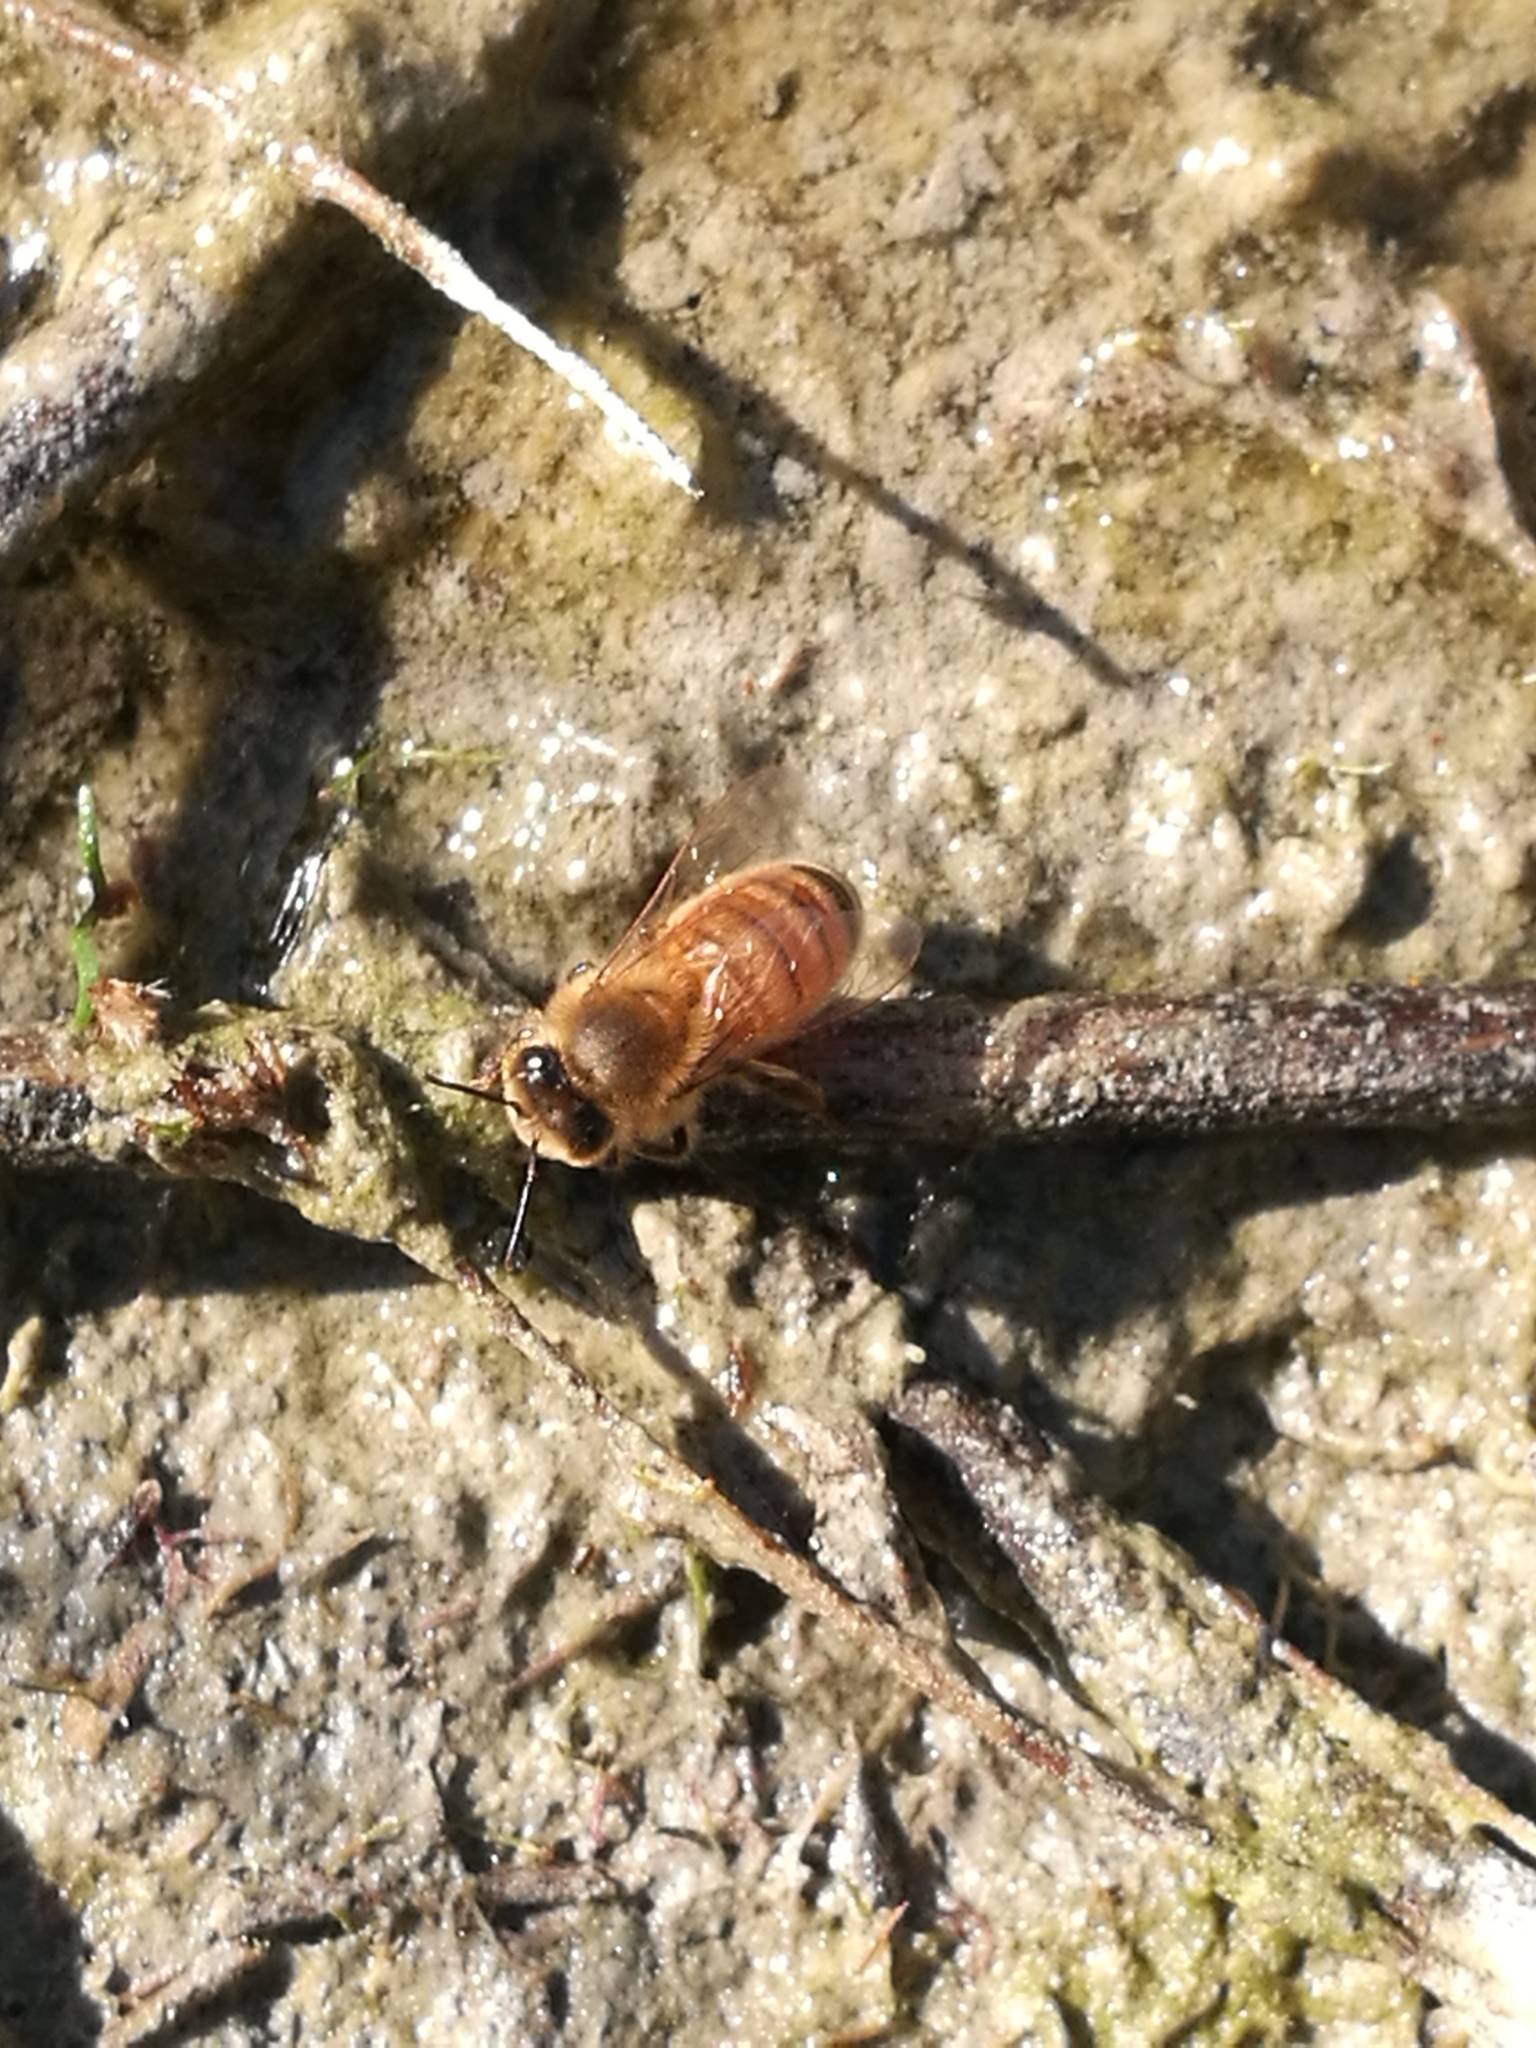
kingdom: Animalia
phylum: Arthropoda
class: Insecta
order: Hymenoptera
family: Apidae
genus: Apis
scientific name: Apis mellifera
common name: Honey bee
